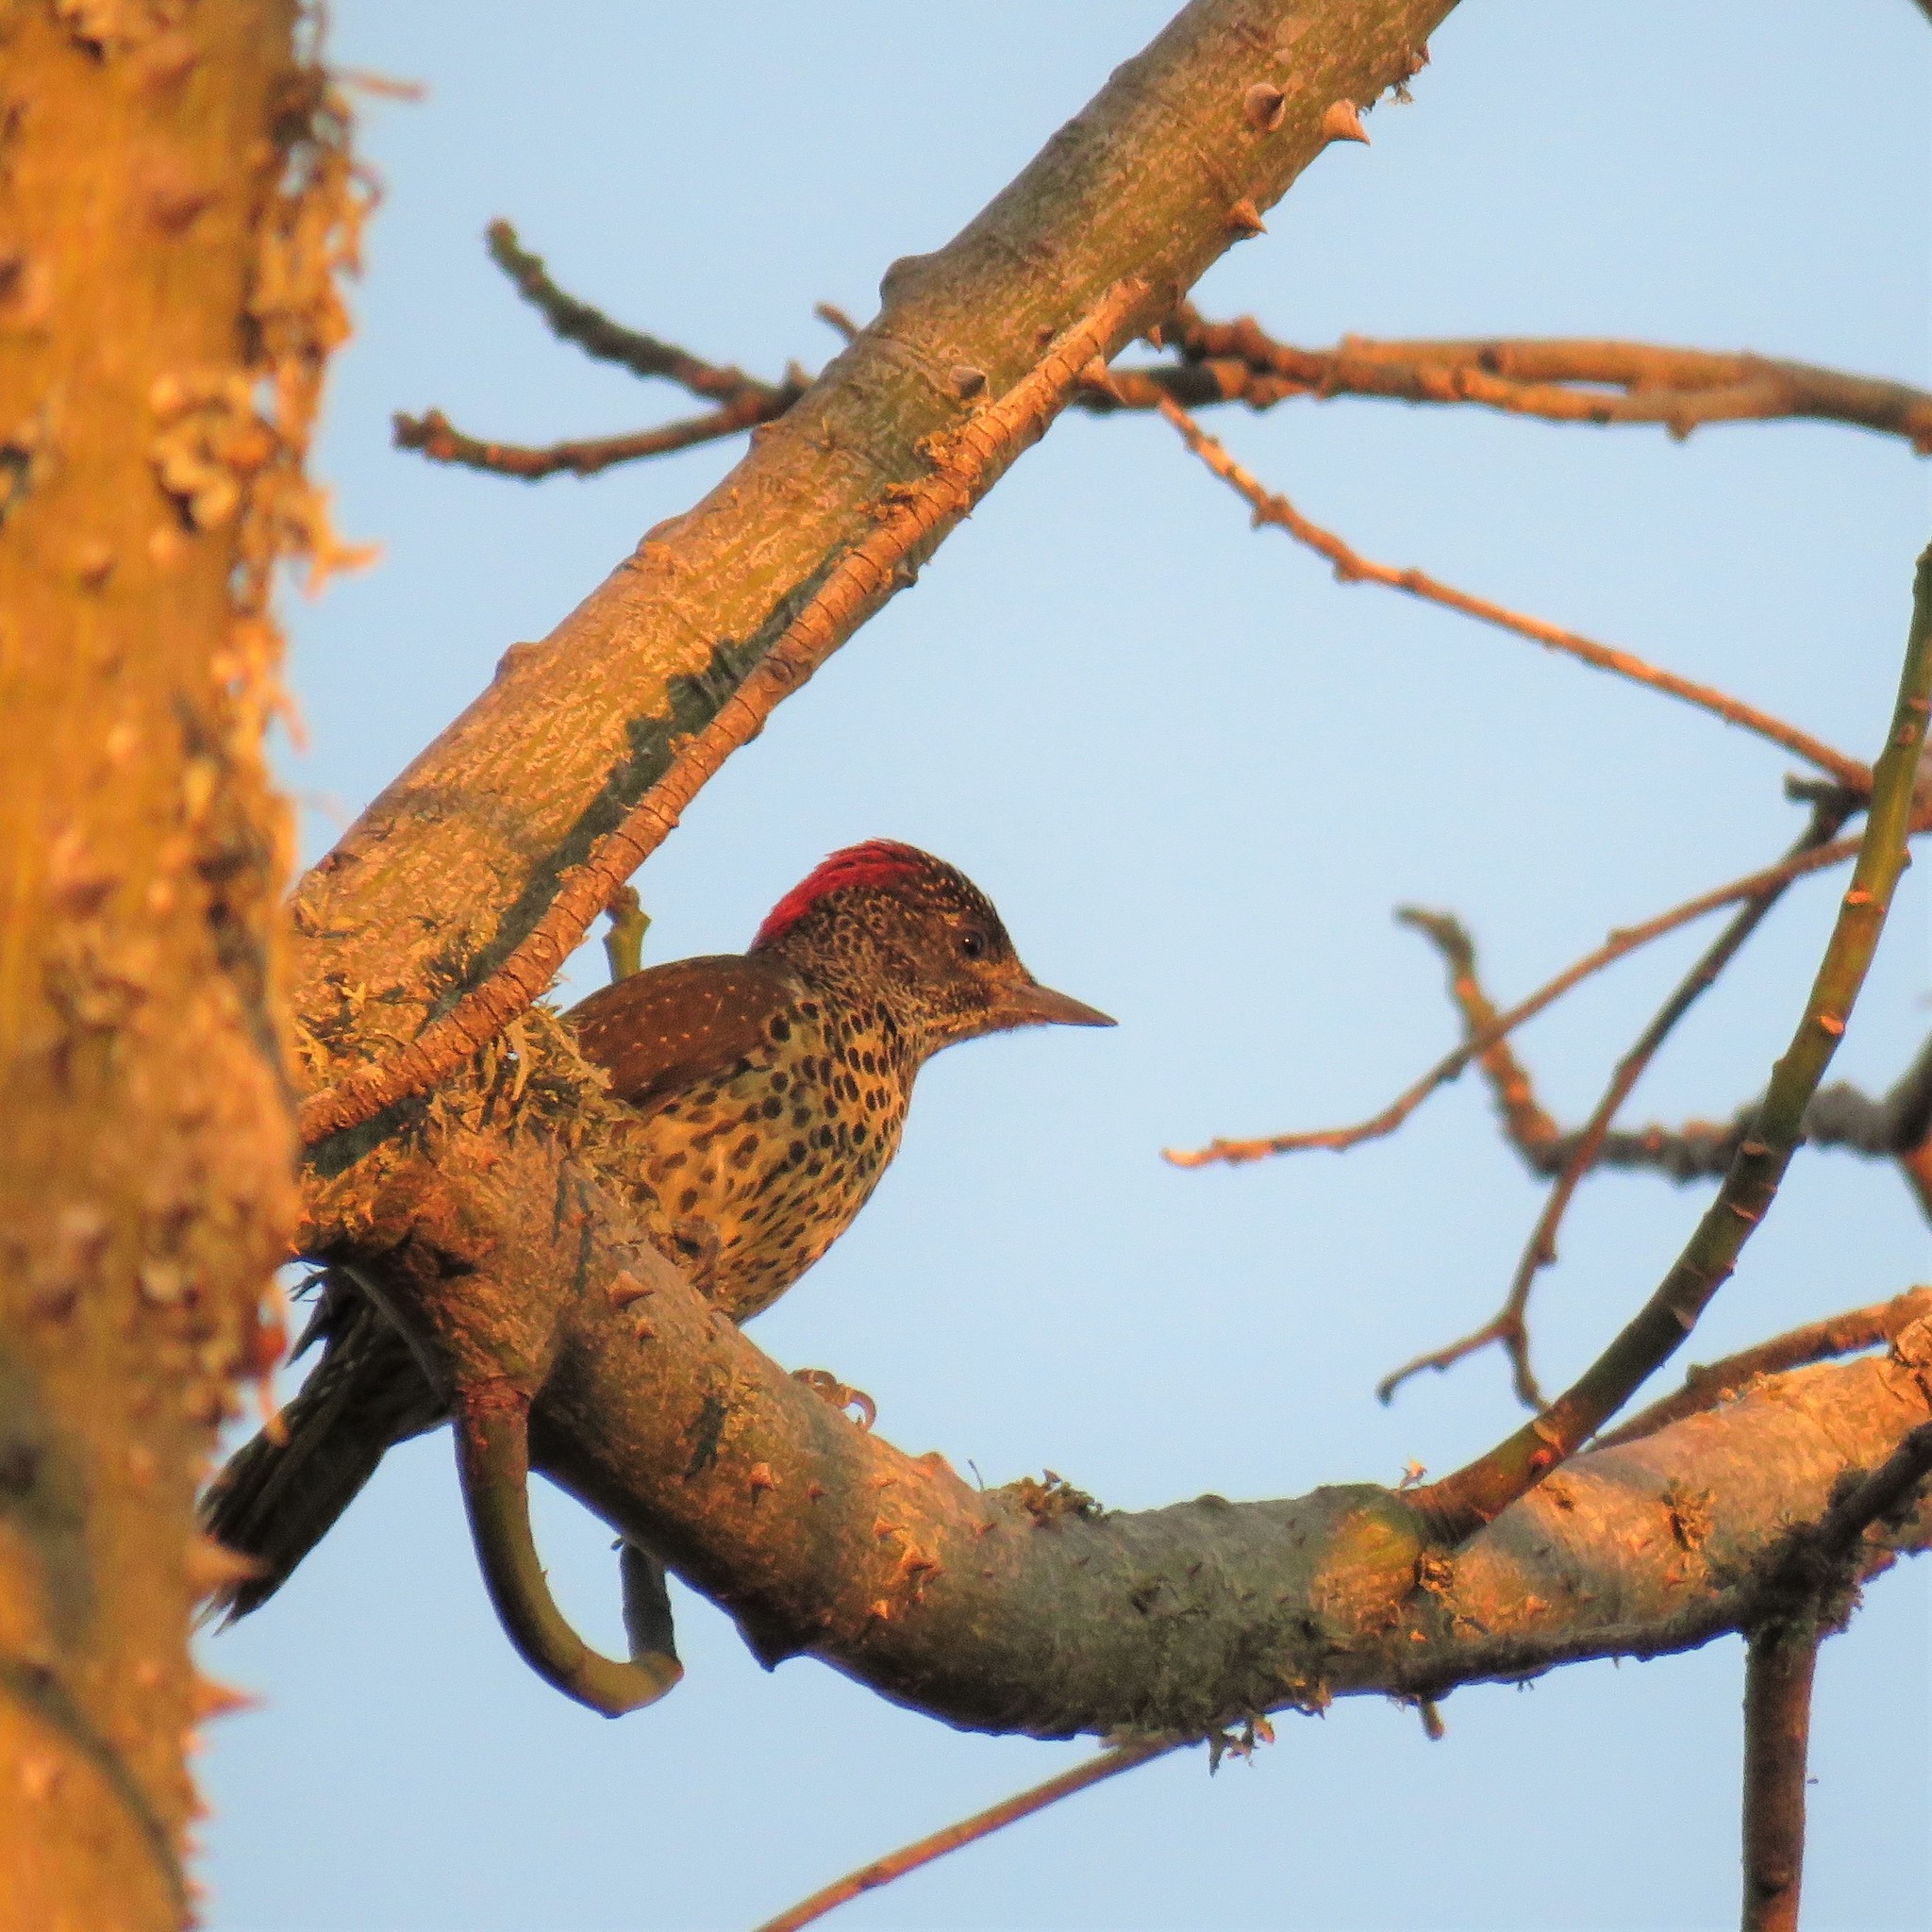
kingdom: Animalia
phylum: Chordata
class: Aves
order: Piciformes
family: Picidae
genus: Campethera
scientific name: Campethera notata
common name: Knysna woodpecker
